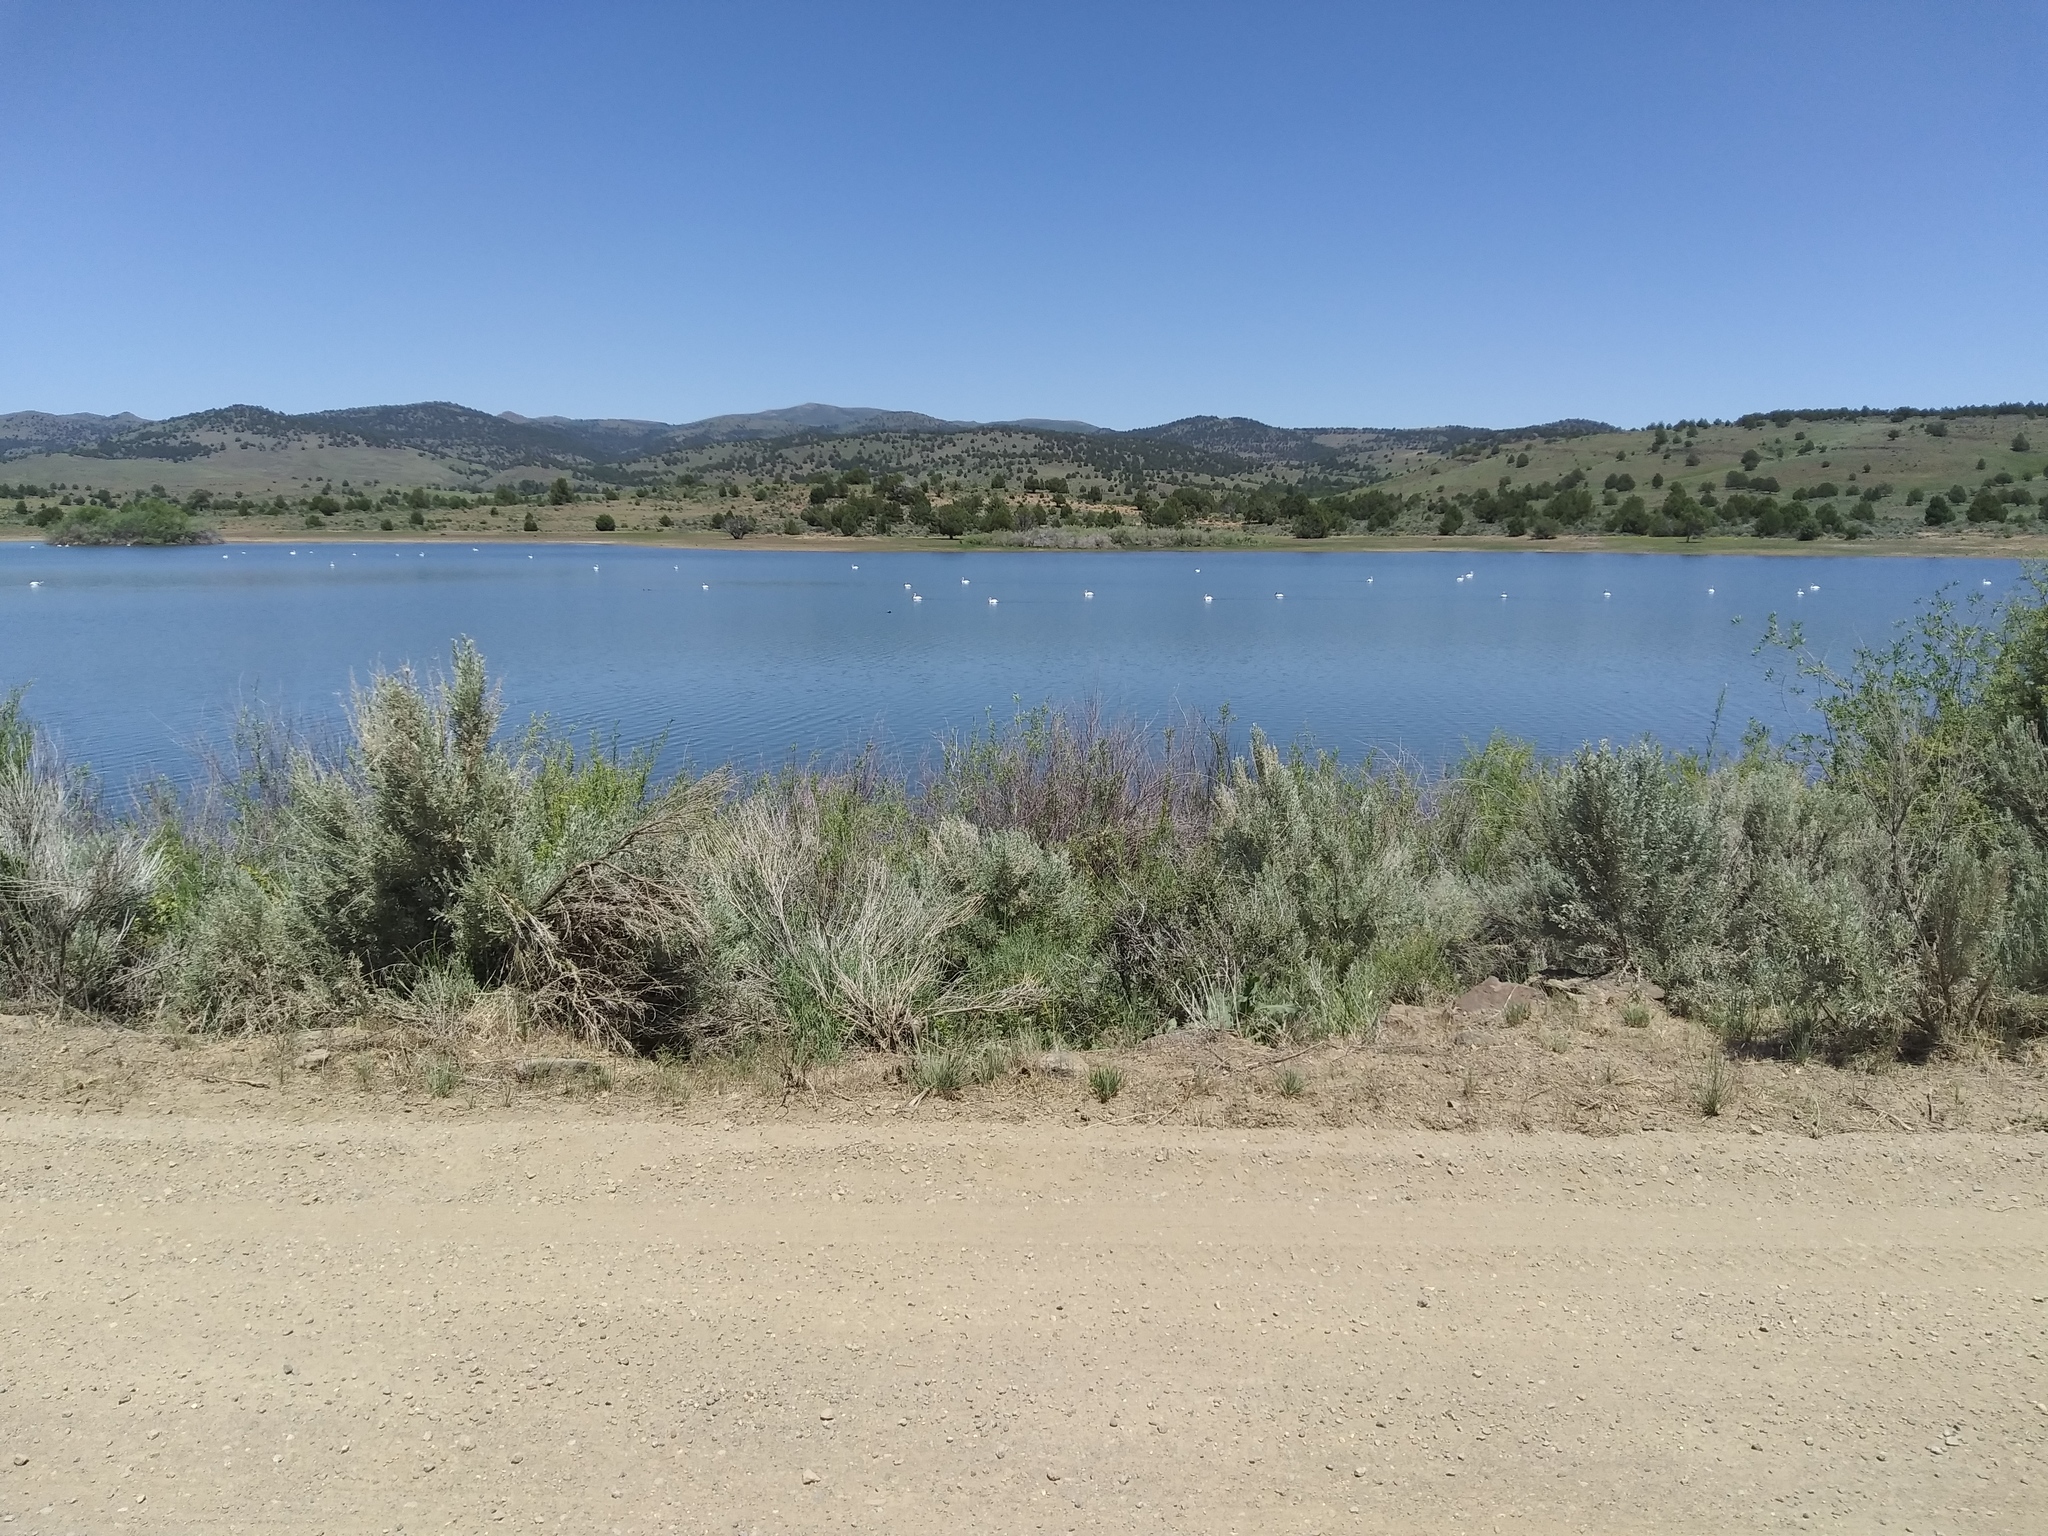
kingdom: Animalia
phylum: Chordata
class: Aves
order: Pelecaniformes
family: Pelecanidae
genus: Pelecanus
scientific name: Pelecanus erythrorhynchos
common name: American white pelican
